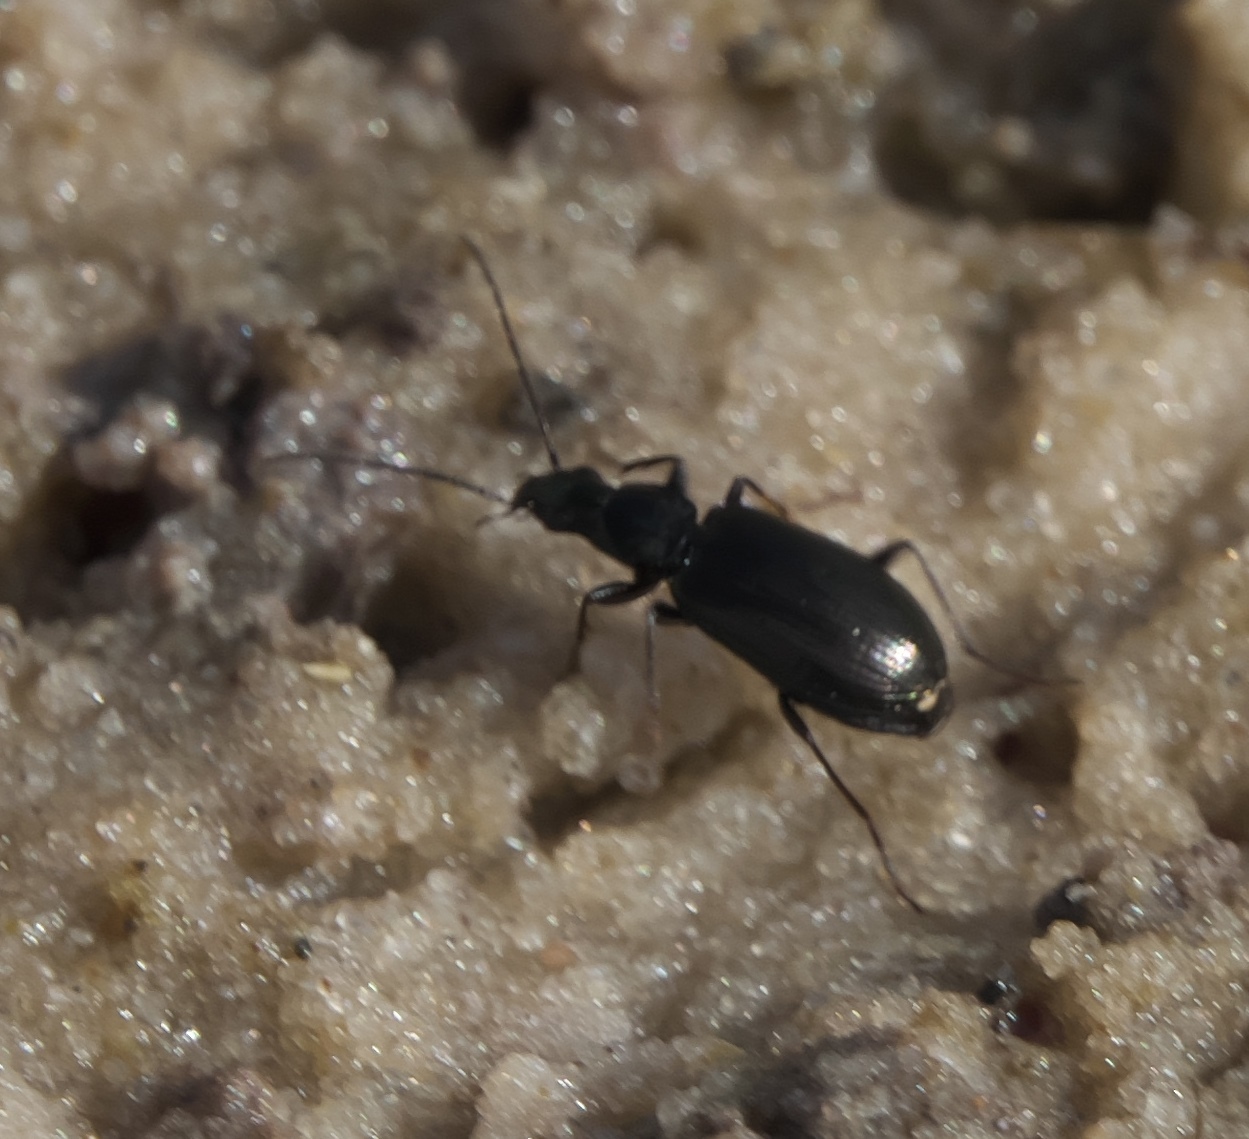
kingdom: Animalia
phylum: Arthropoda
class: Insecta
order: Coleoptera
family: Carabidae
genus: Agonum
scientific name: Agonum elongatulum
